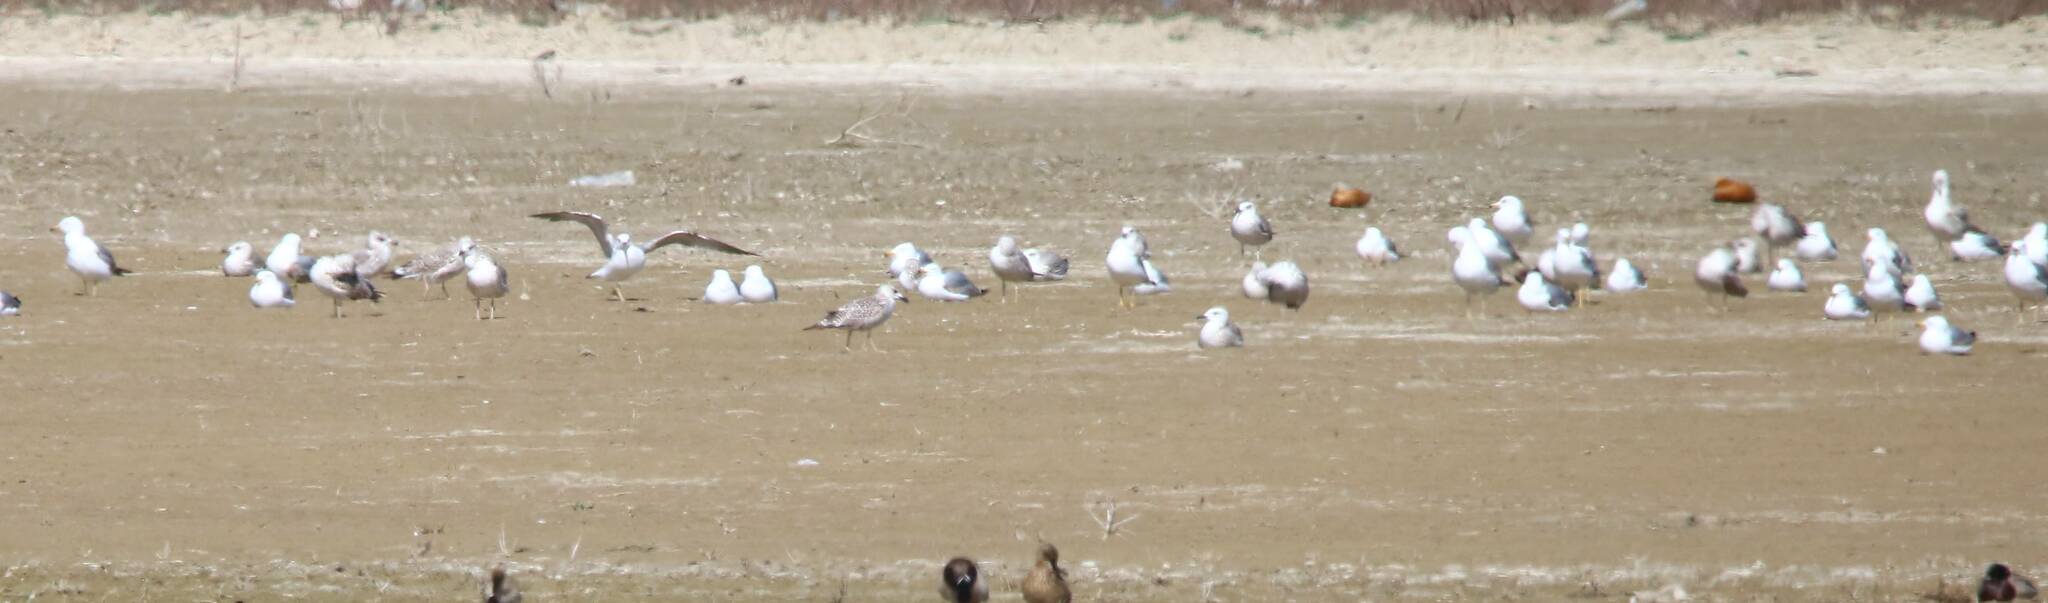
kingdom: Animalia
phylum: Chordata
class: Aves
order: Charadriiformes
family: Laridae
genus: Larus
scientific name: Larus michahellis
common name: Yellow-legged gull
